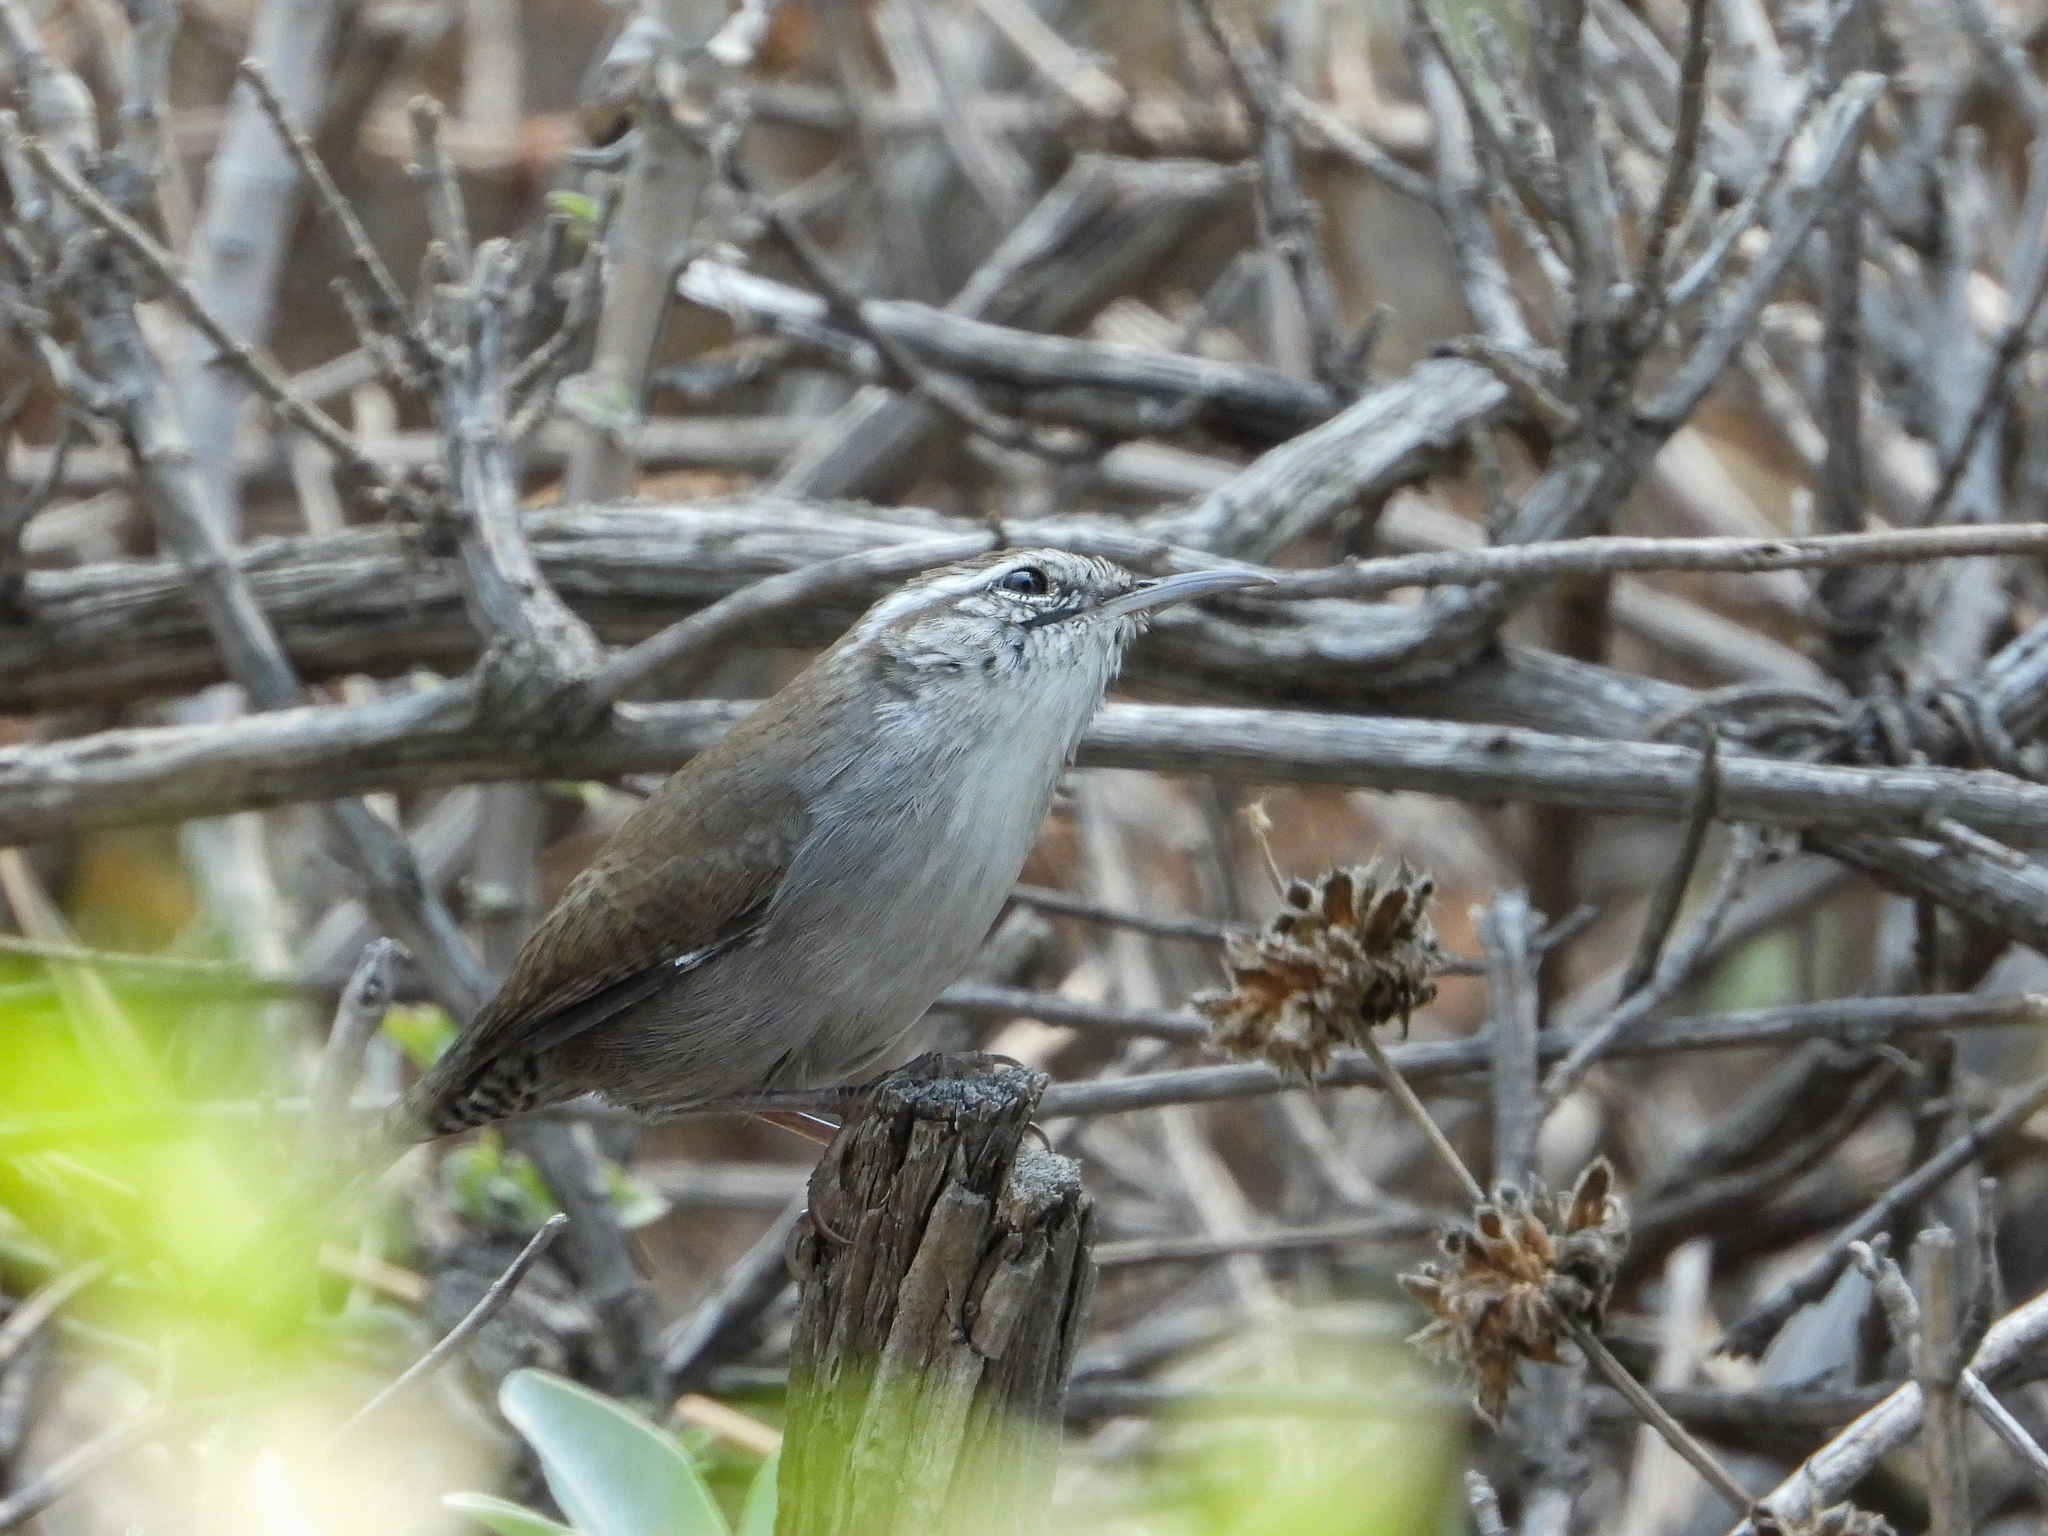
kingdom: Animalia
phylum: Chordata
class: Aves
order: Passeriformes
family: Troglodytidae
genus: Thryomanes
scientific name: Thryomanes bewickii
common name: Bewick's wren
